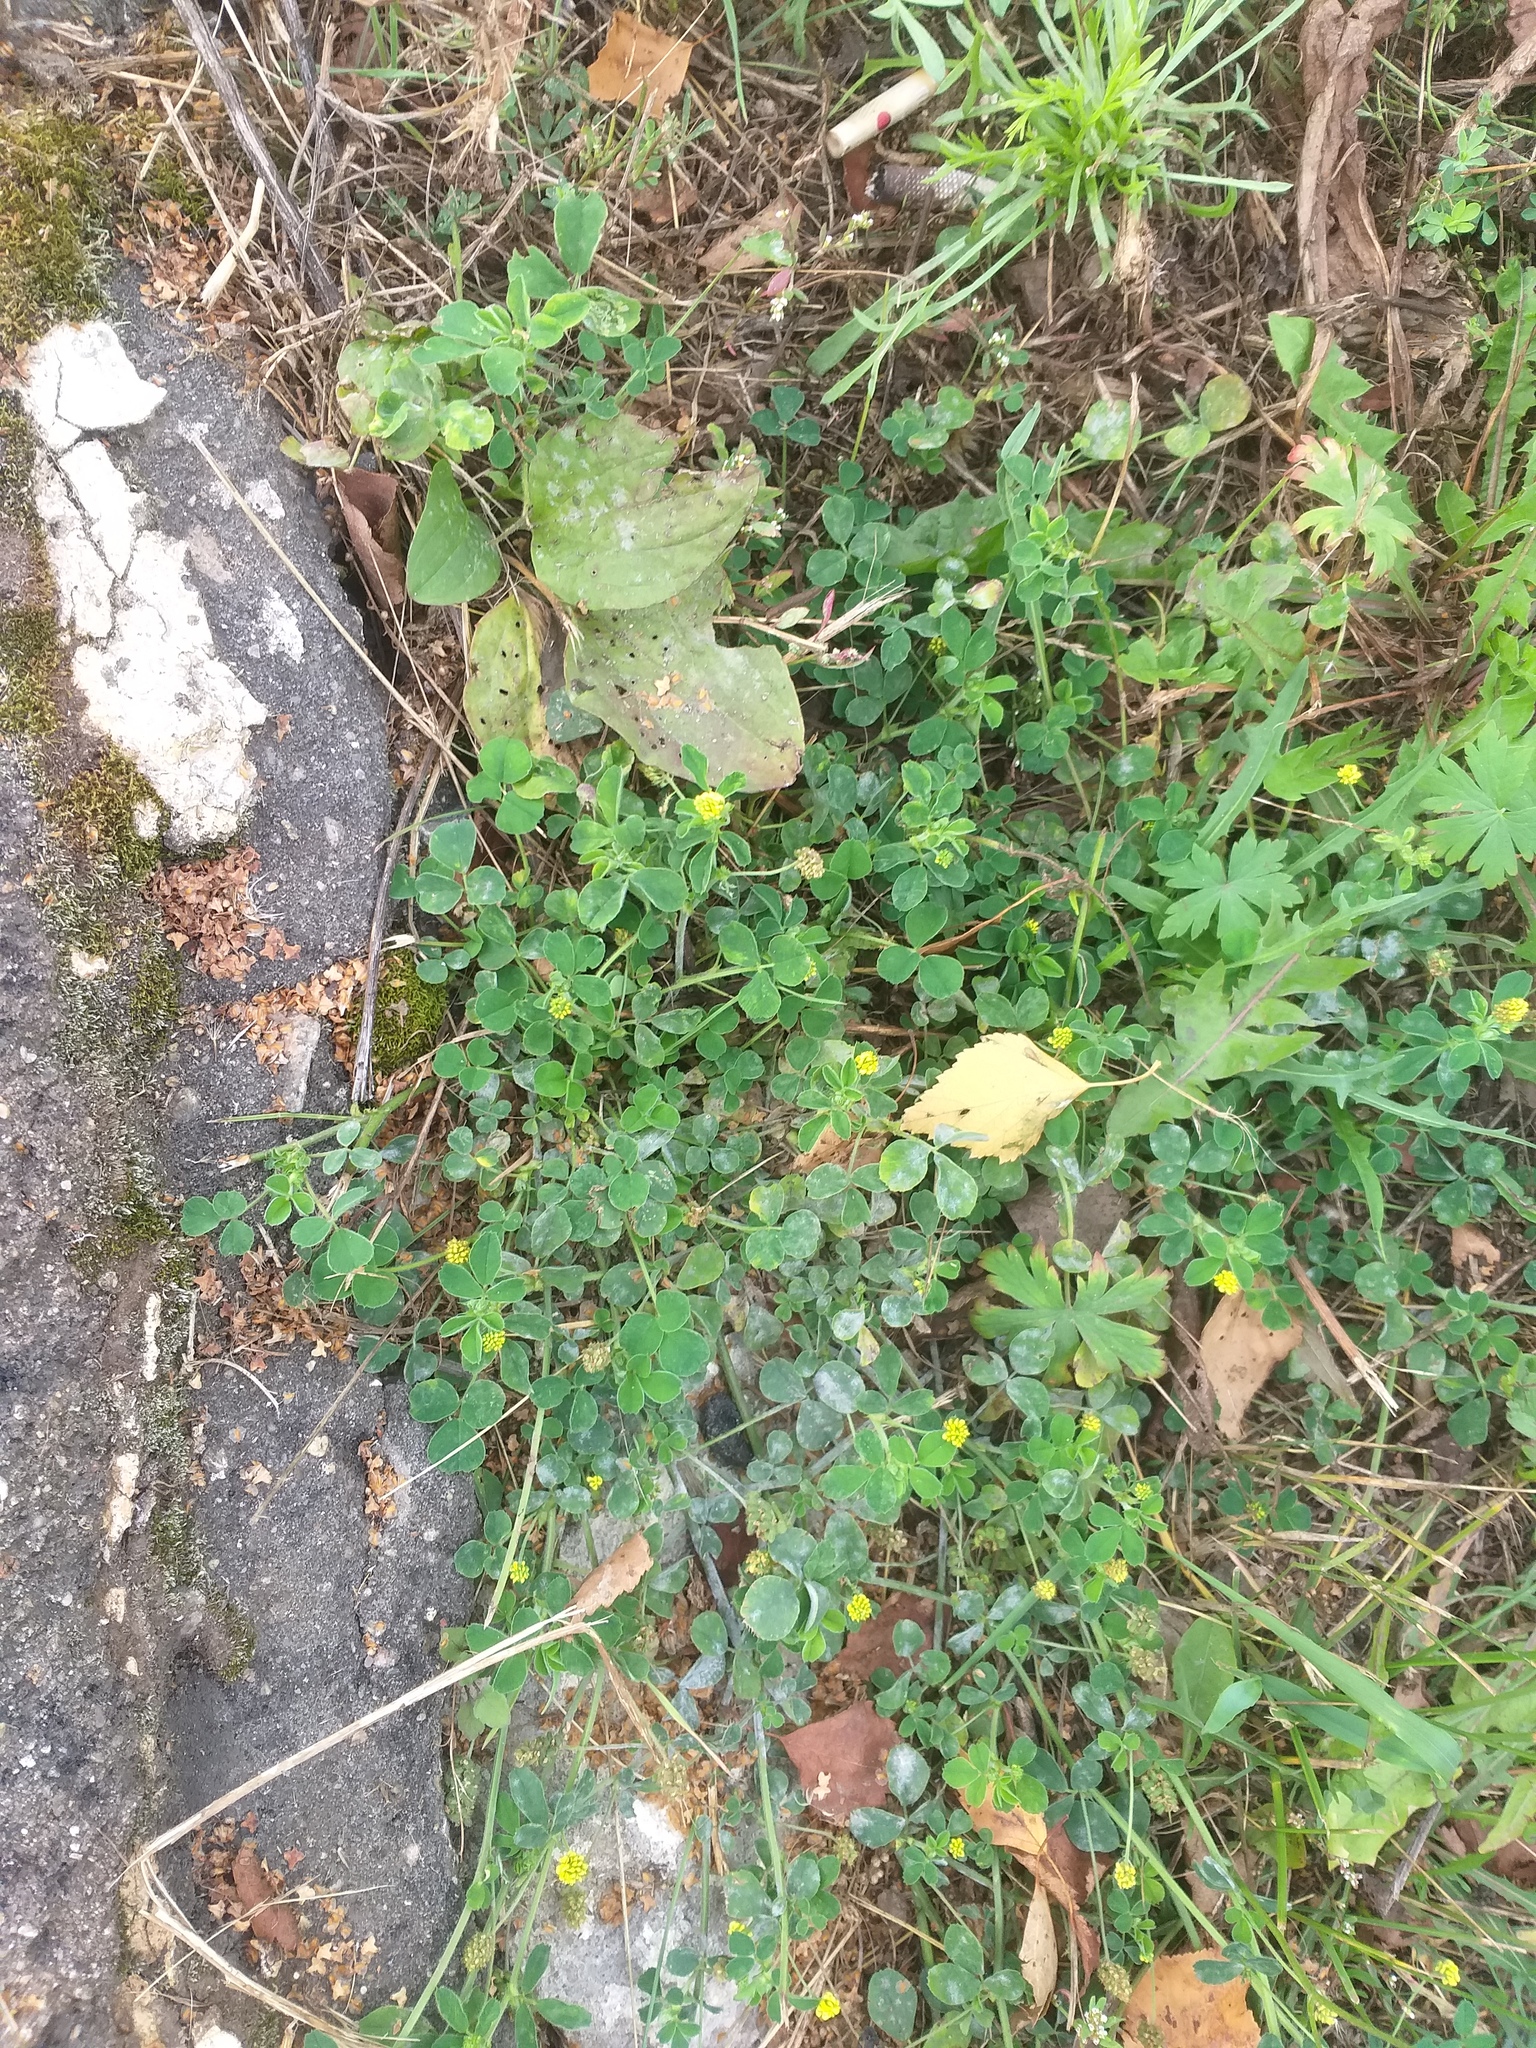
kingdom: Plantae
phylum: Tracheophyta
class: Magnoliopsida
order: Fabales
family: Fabaceae
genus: Medicago
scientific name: Medicago lupulina
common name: Black medick
